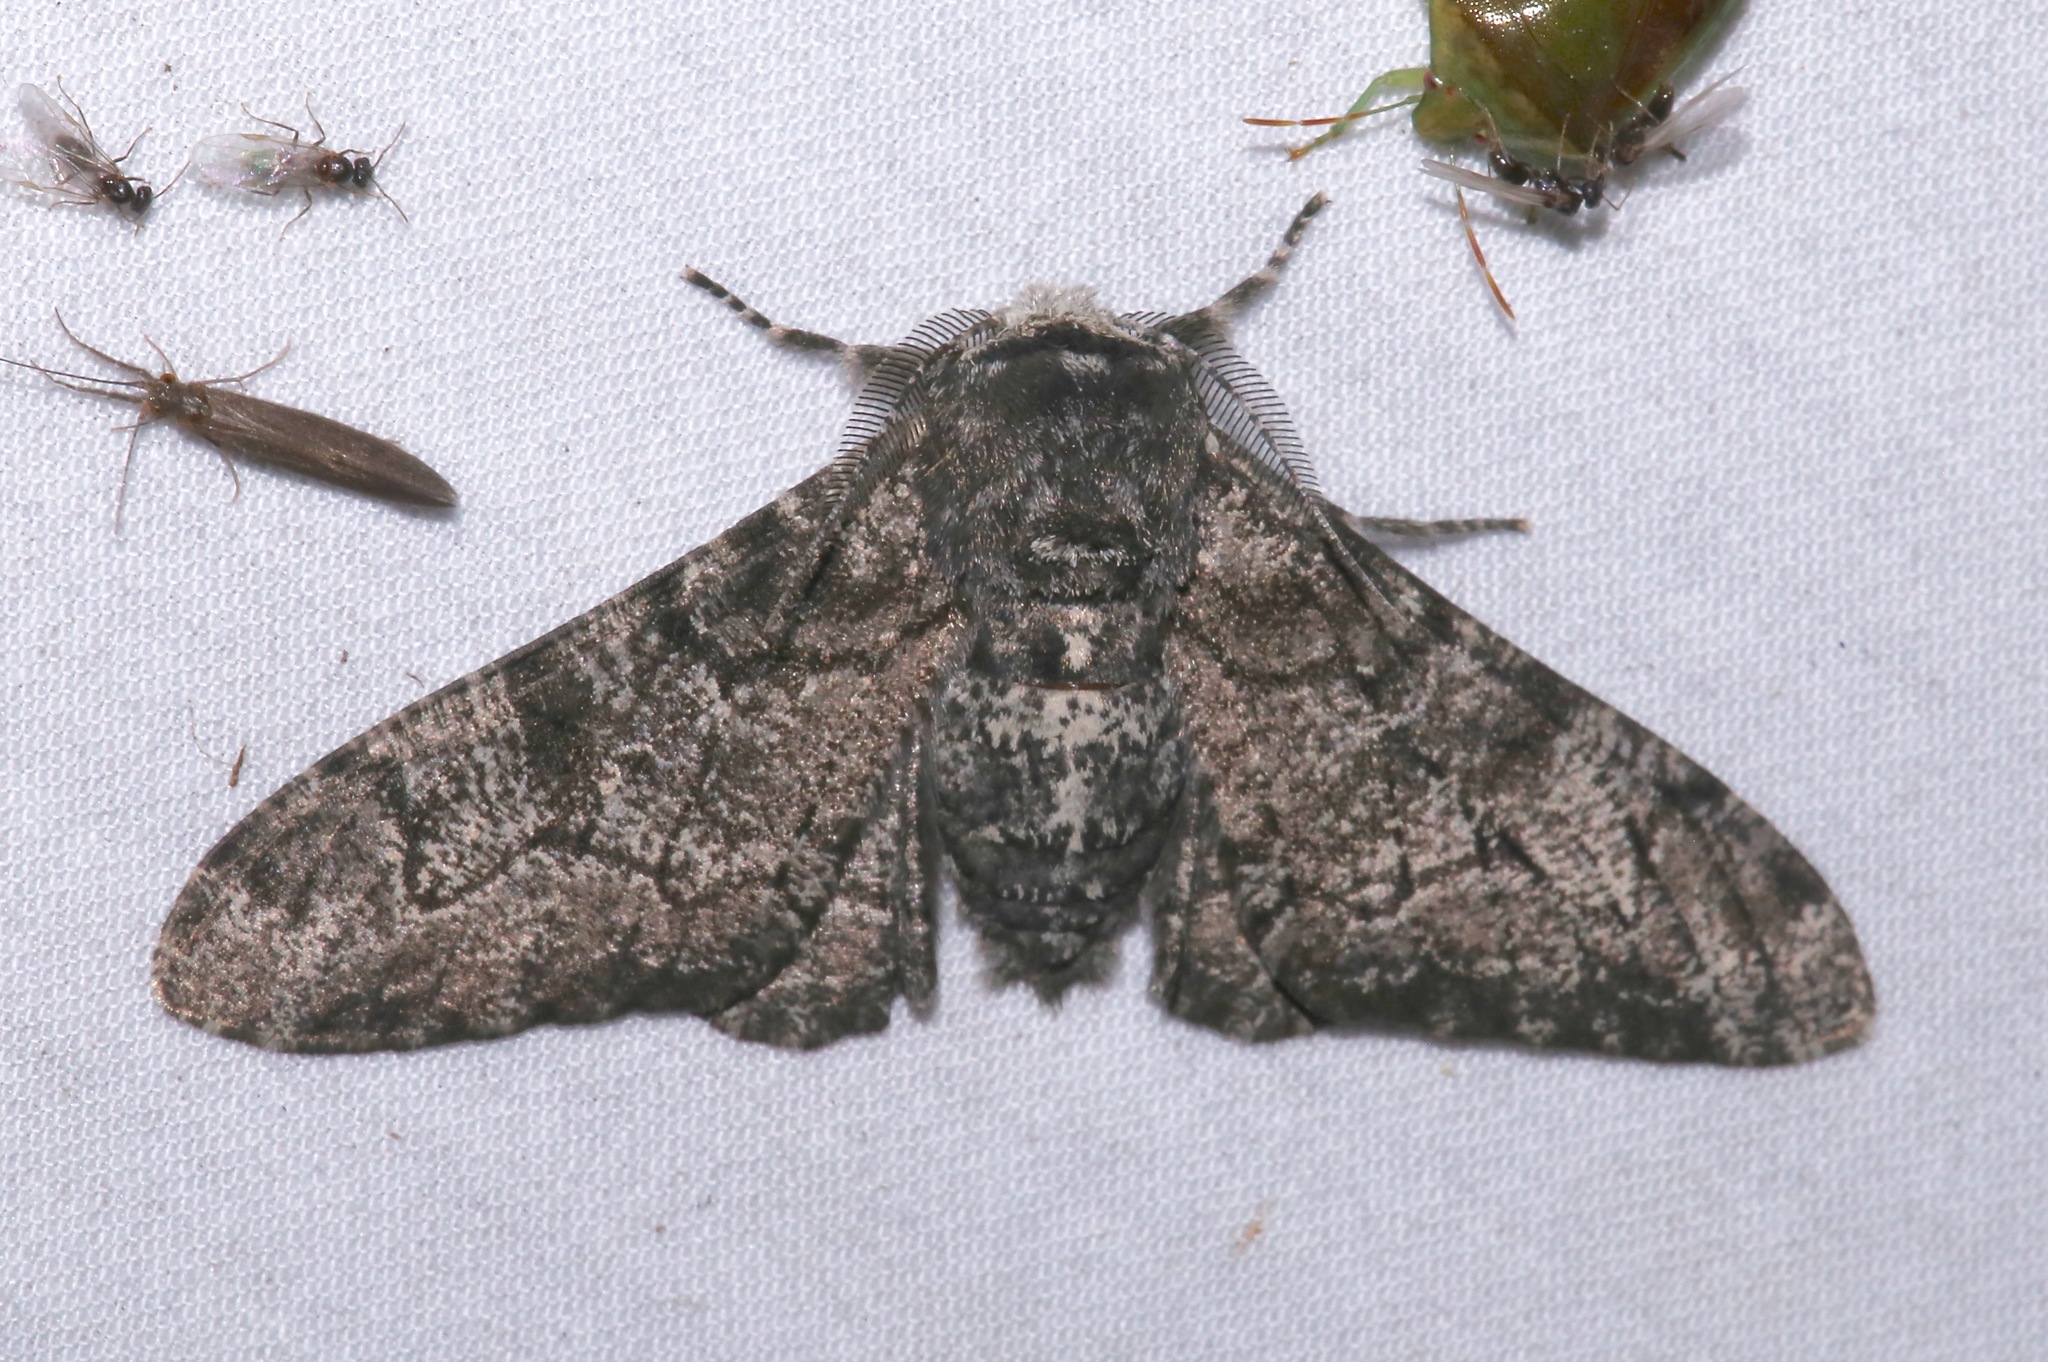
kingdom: Animalia
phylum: Arthropoda
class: Insecta
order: Lepidoptera
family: Geometridae
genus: Biston
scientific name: Biston betularia
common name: Peppered moth
